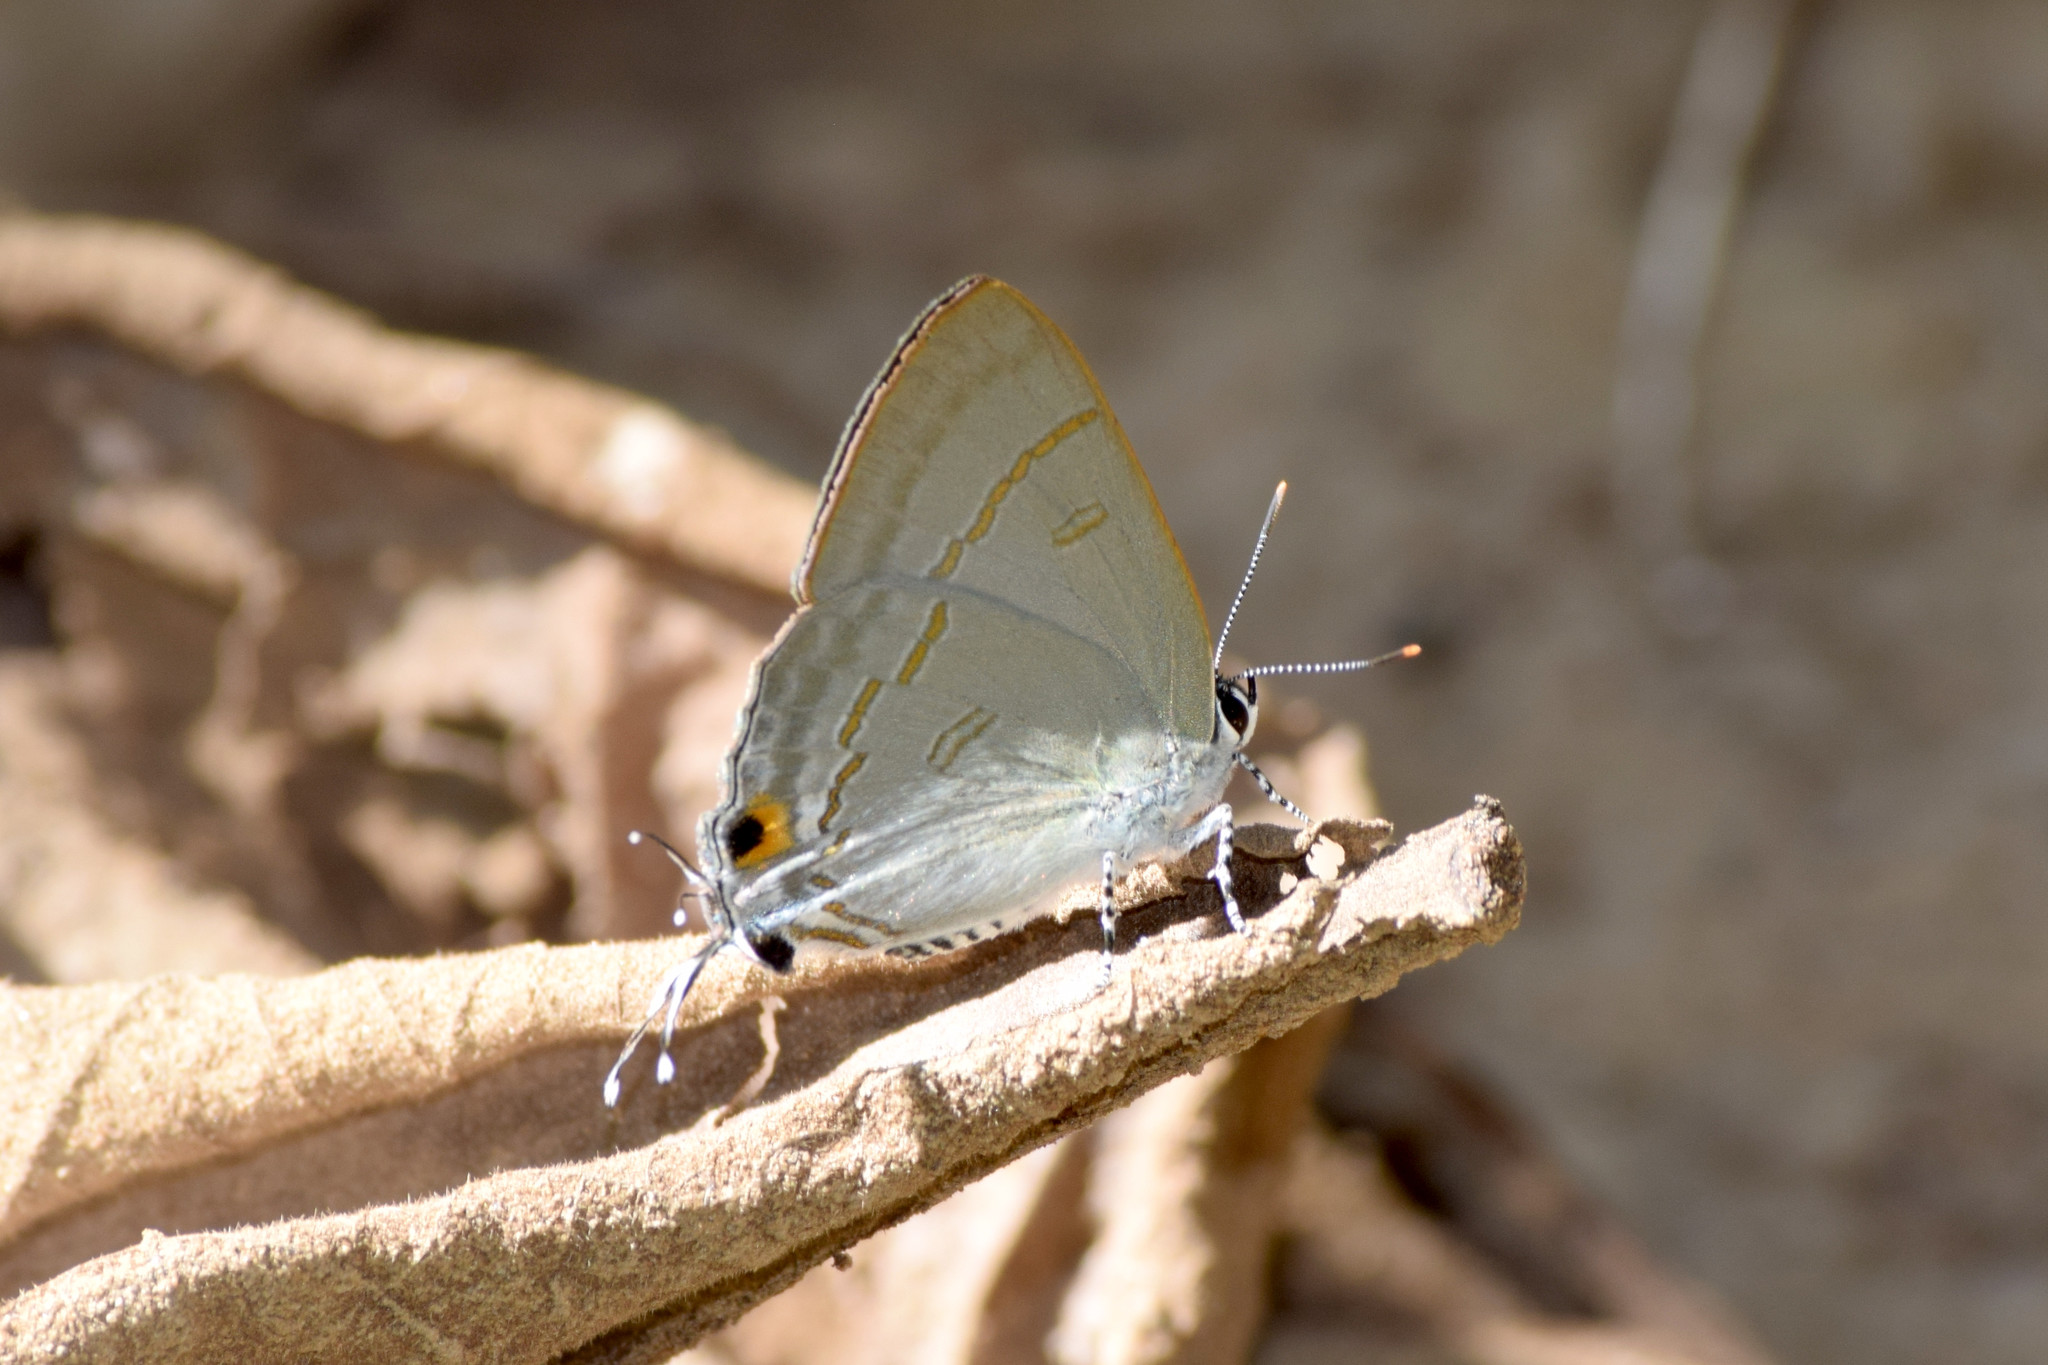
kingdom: Animalia
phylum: Arthropoda
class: Insecta
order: Lepidoptera
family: Lycaenidae
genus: Hypolycaena
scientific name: Hypolycaena erylus
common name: Common tit
